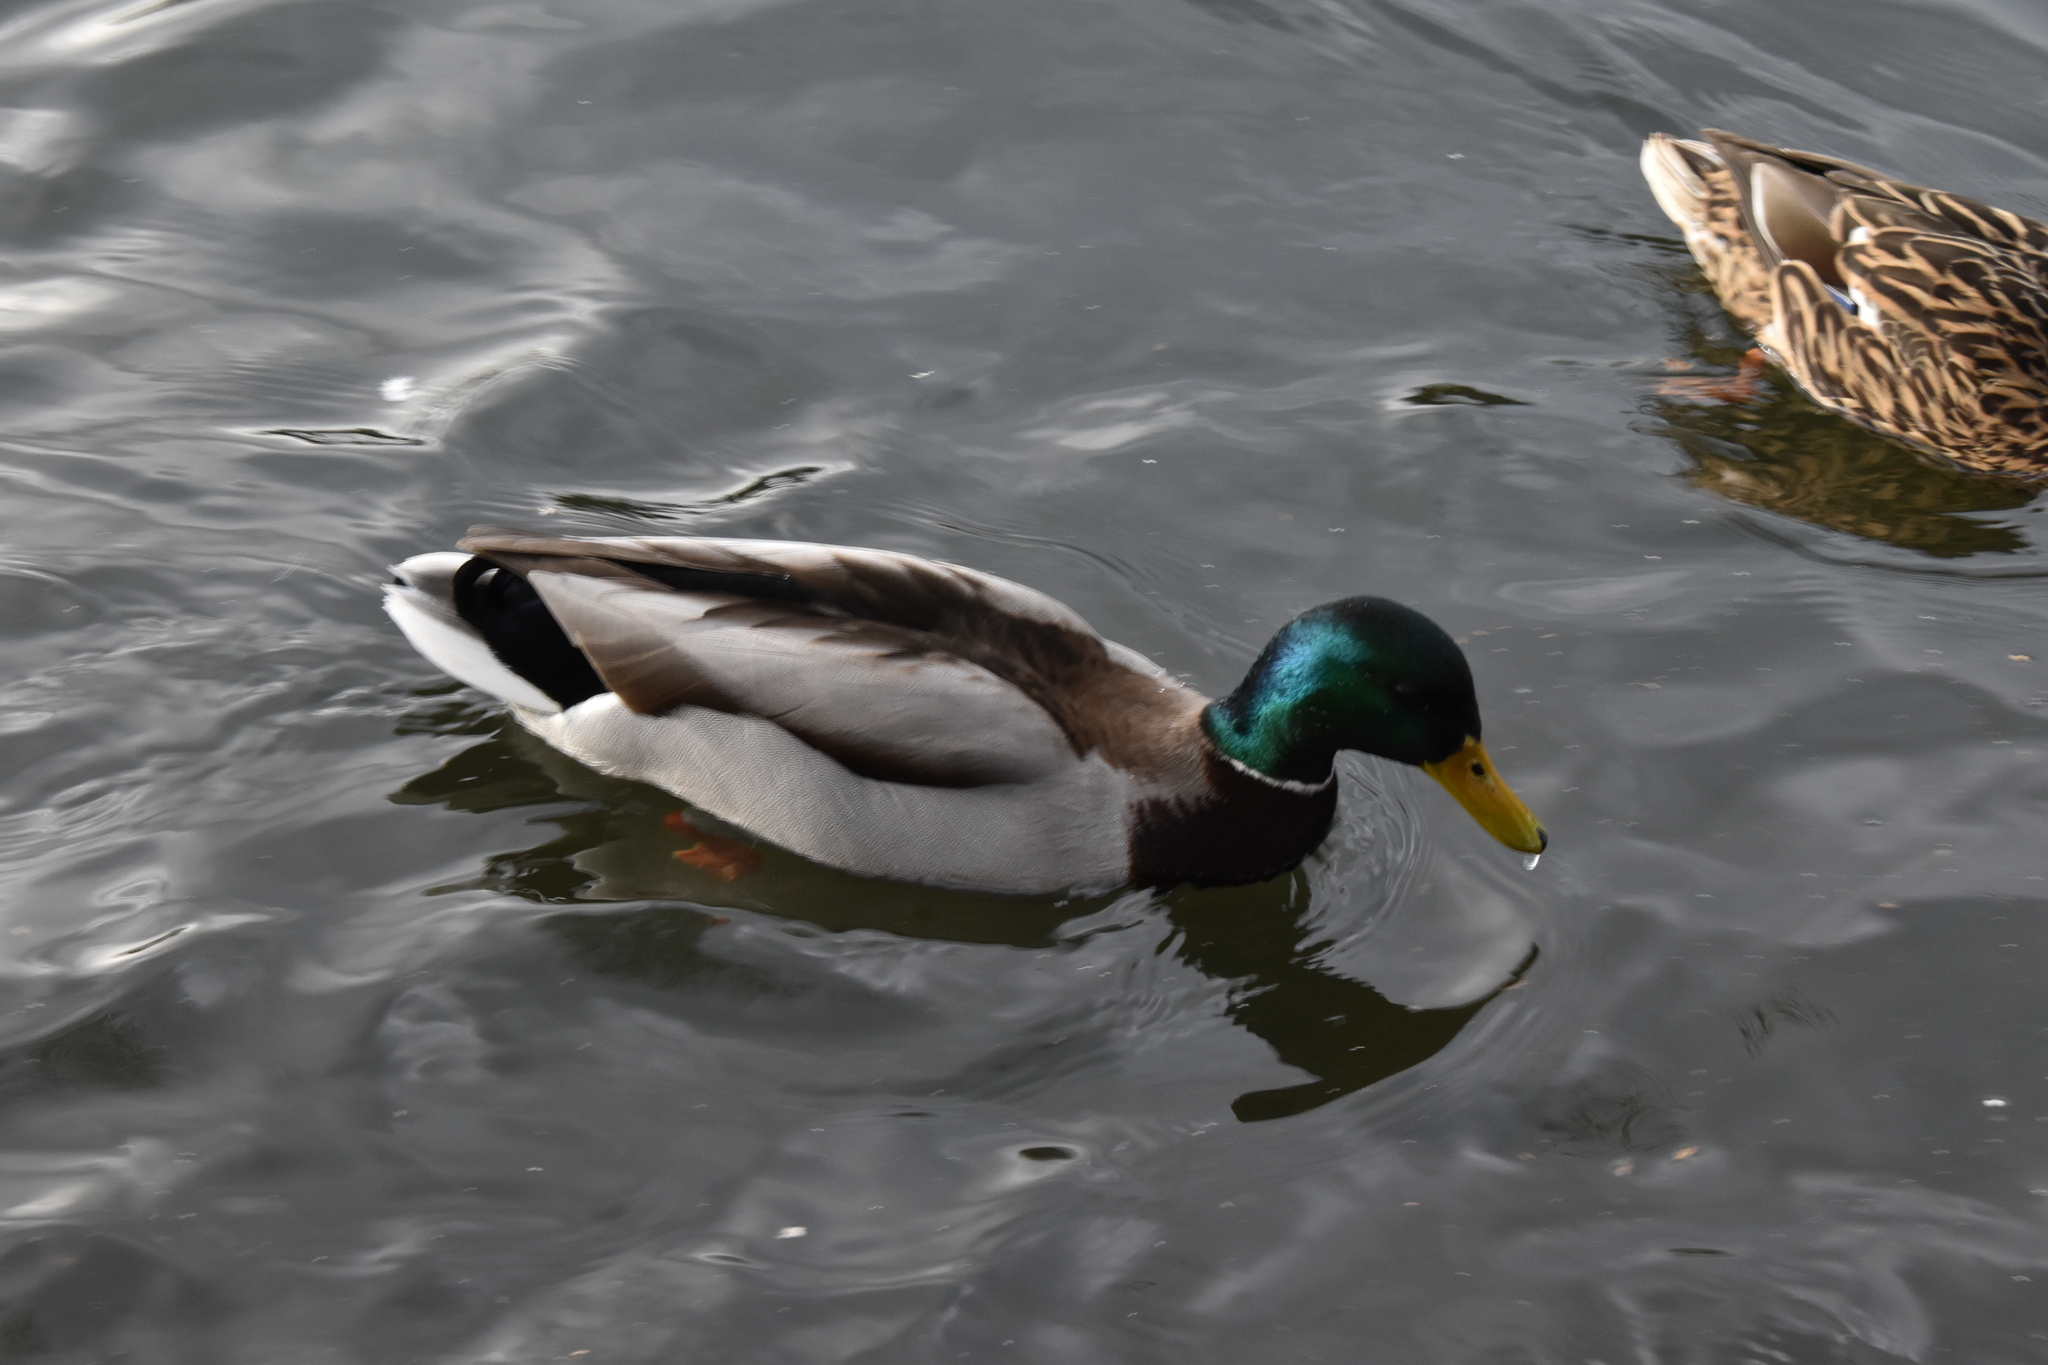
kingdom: Animalia
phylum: Chordata
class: Aves
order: Anseriformes
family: Anatidae
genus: Anas
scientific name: Anas platyrhynchos
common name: Mallard
